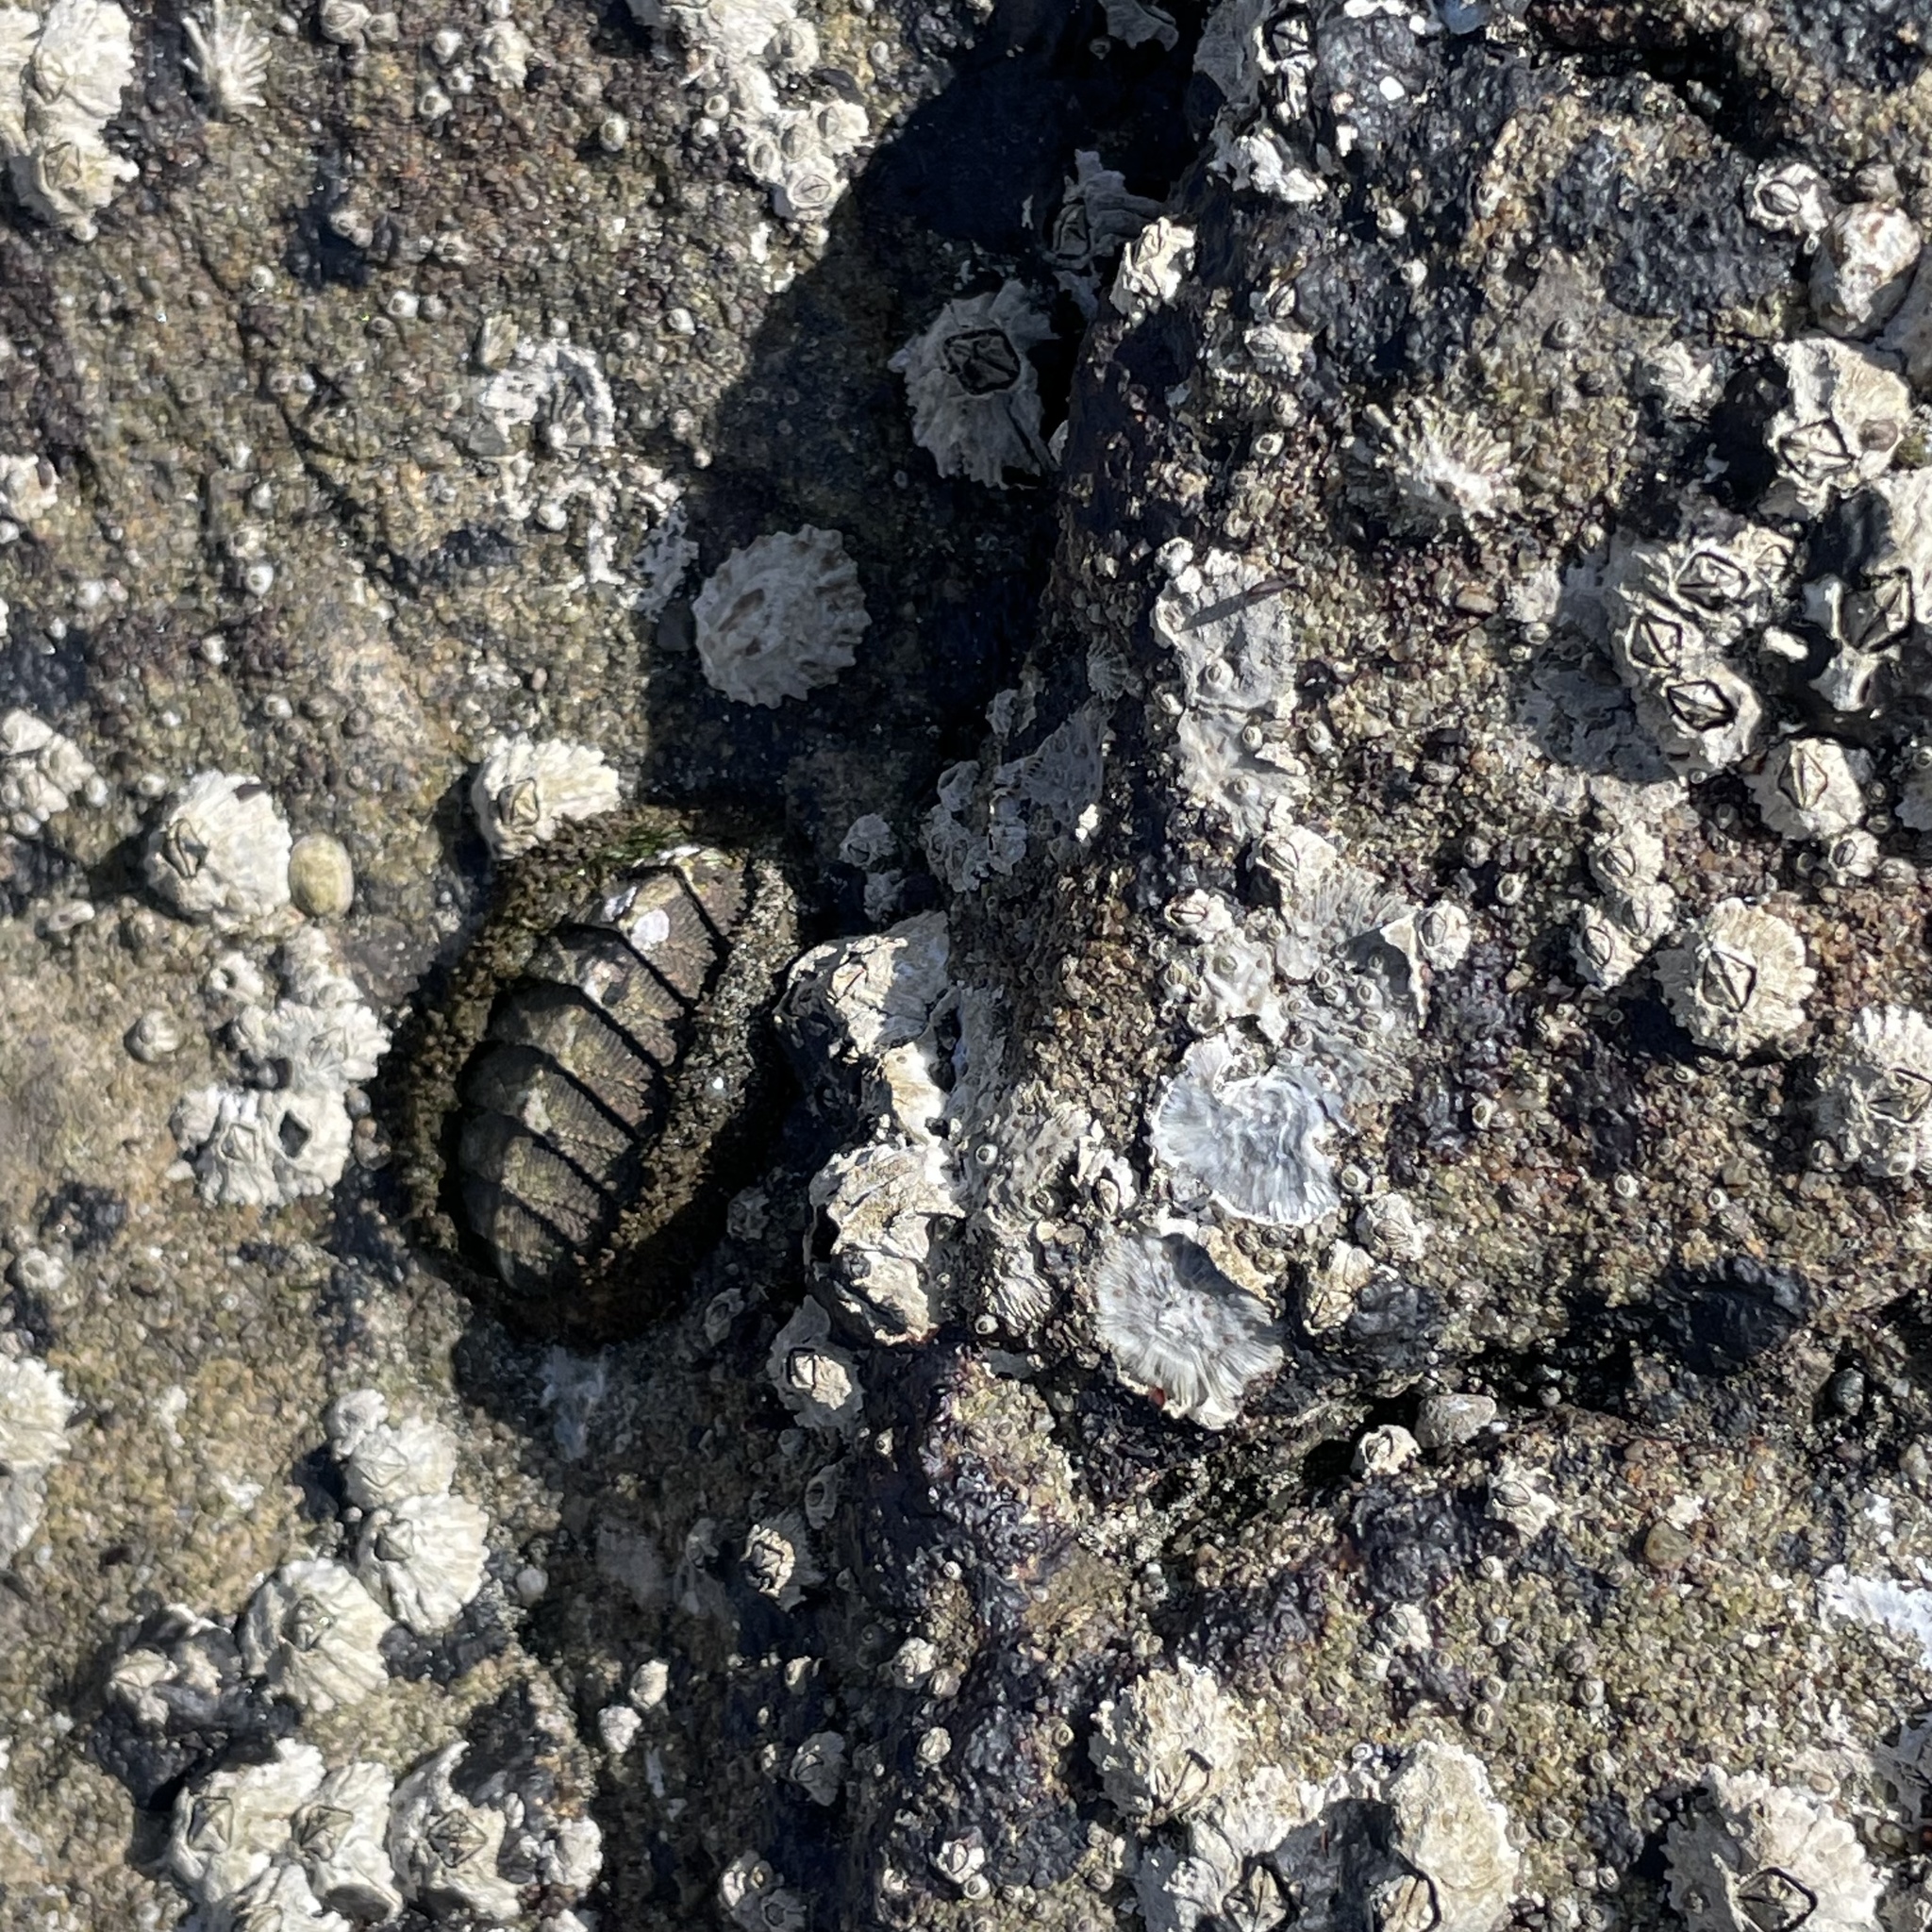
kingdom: Animalia
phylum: Mollusca
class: Polyplacophora
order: Chitonida
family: Mopaliidae
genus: Mopalia
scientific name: Mopalia muscosa
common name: Mossy chiton
